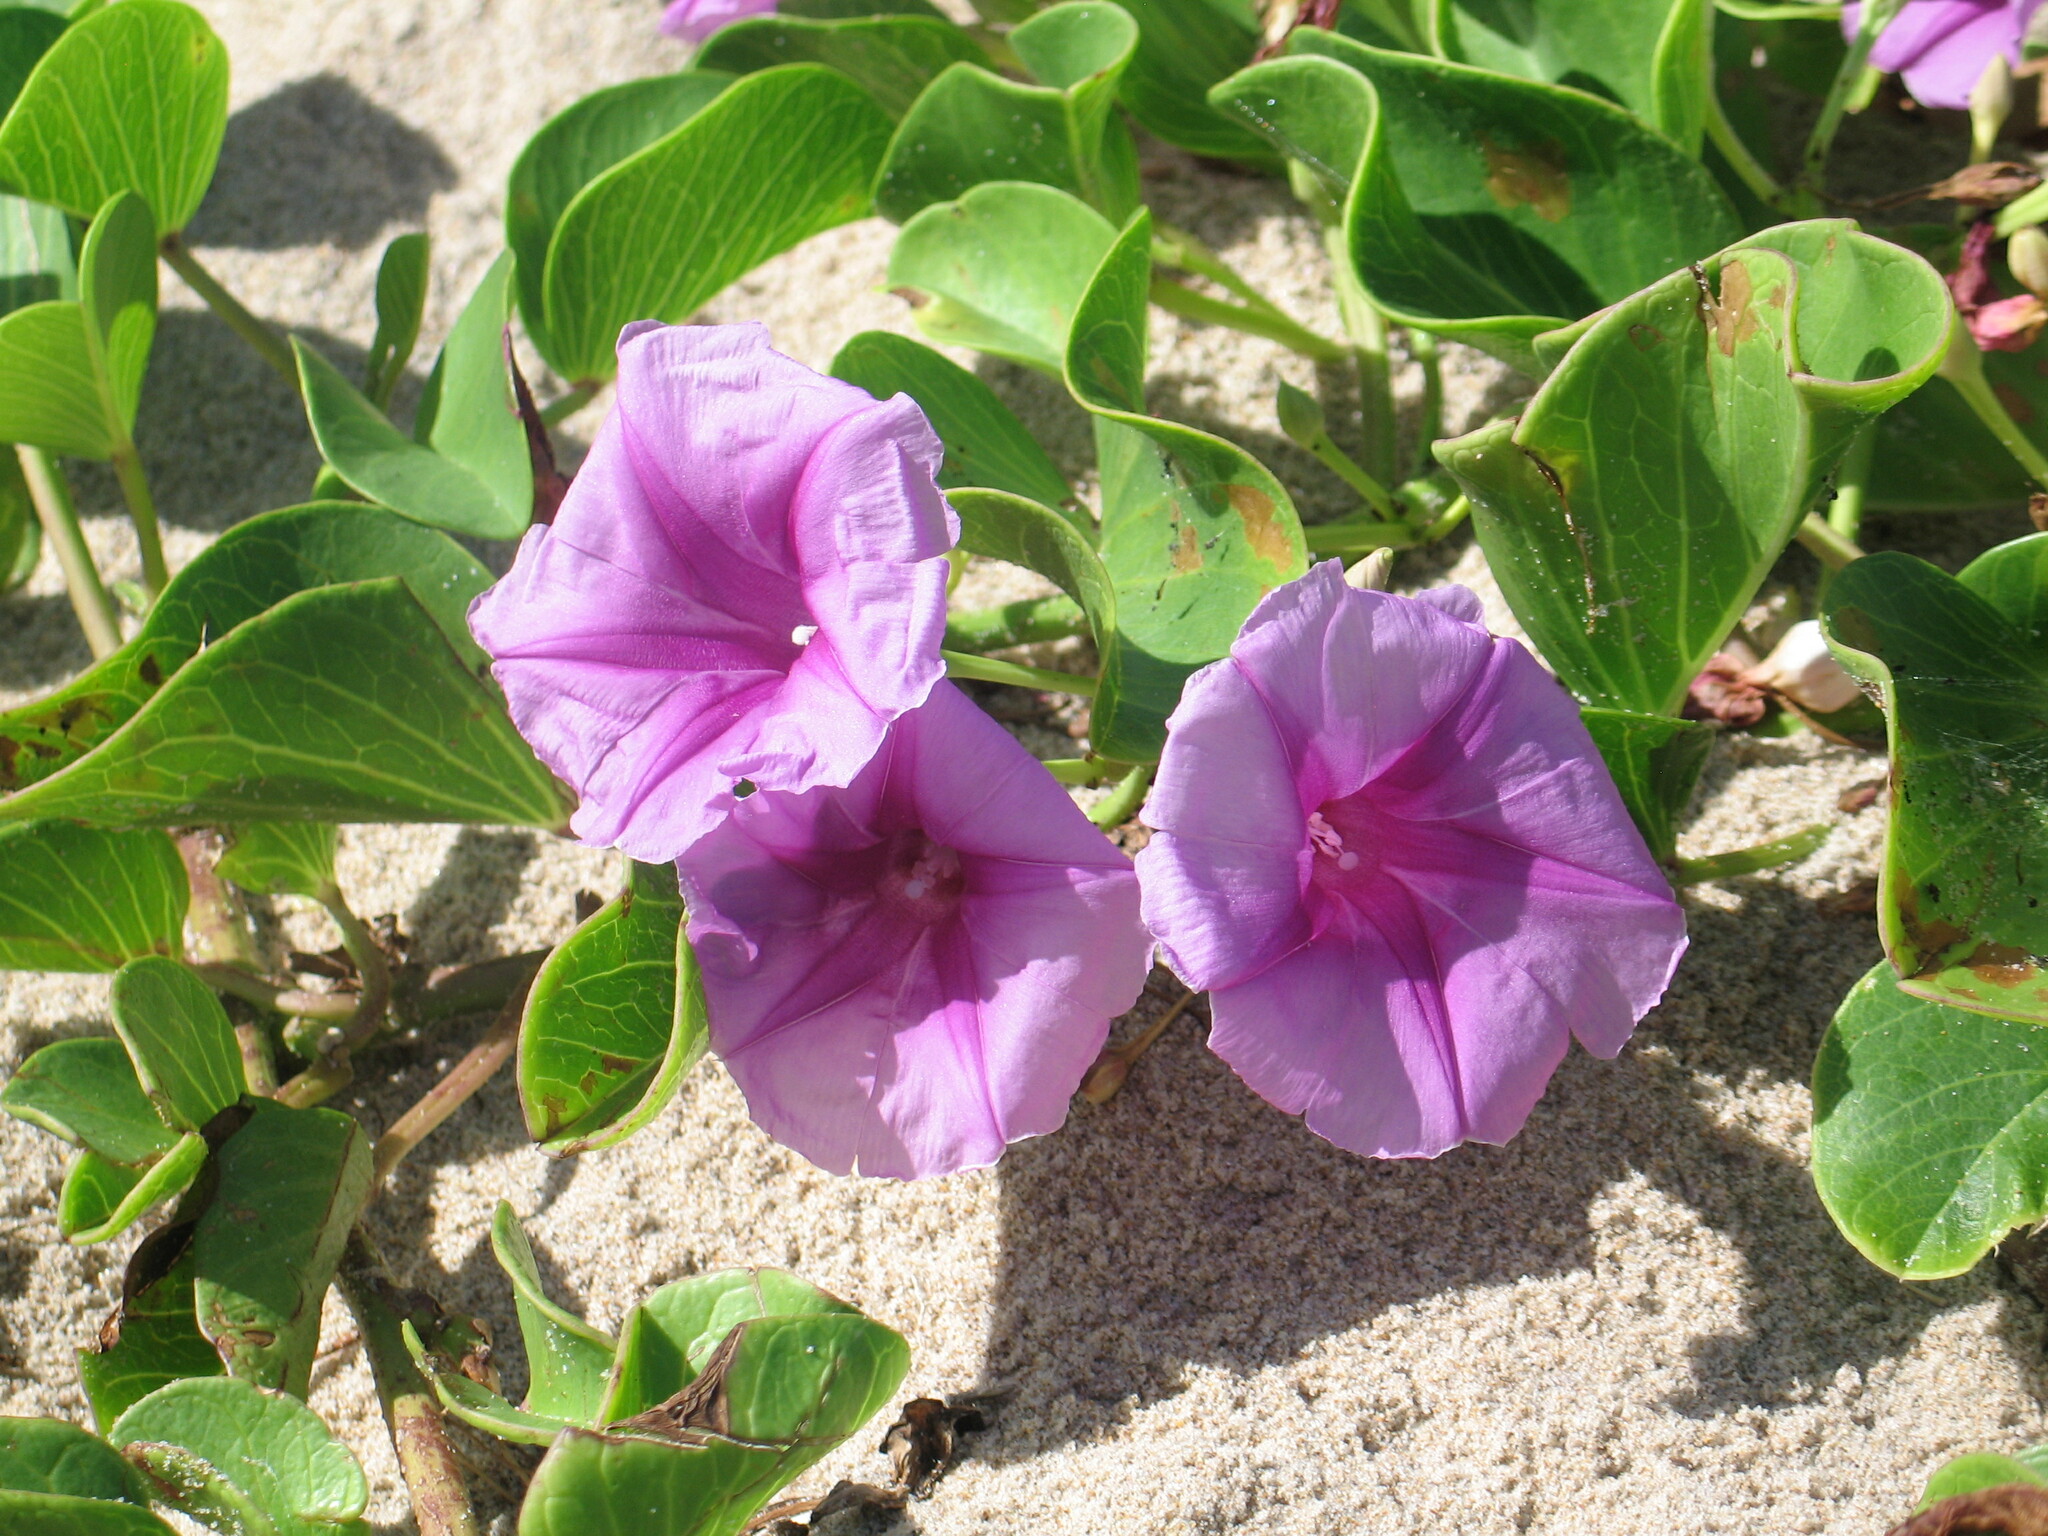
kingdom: Plantae
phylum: Tracheophyta
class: Magnoliopsida
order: Solanales
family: Convolvulaceae
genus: Ipomoea
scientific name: Ipomoea pes-caprae
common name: Beach morning glory
